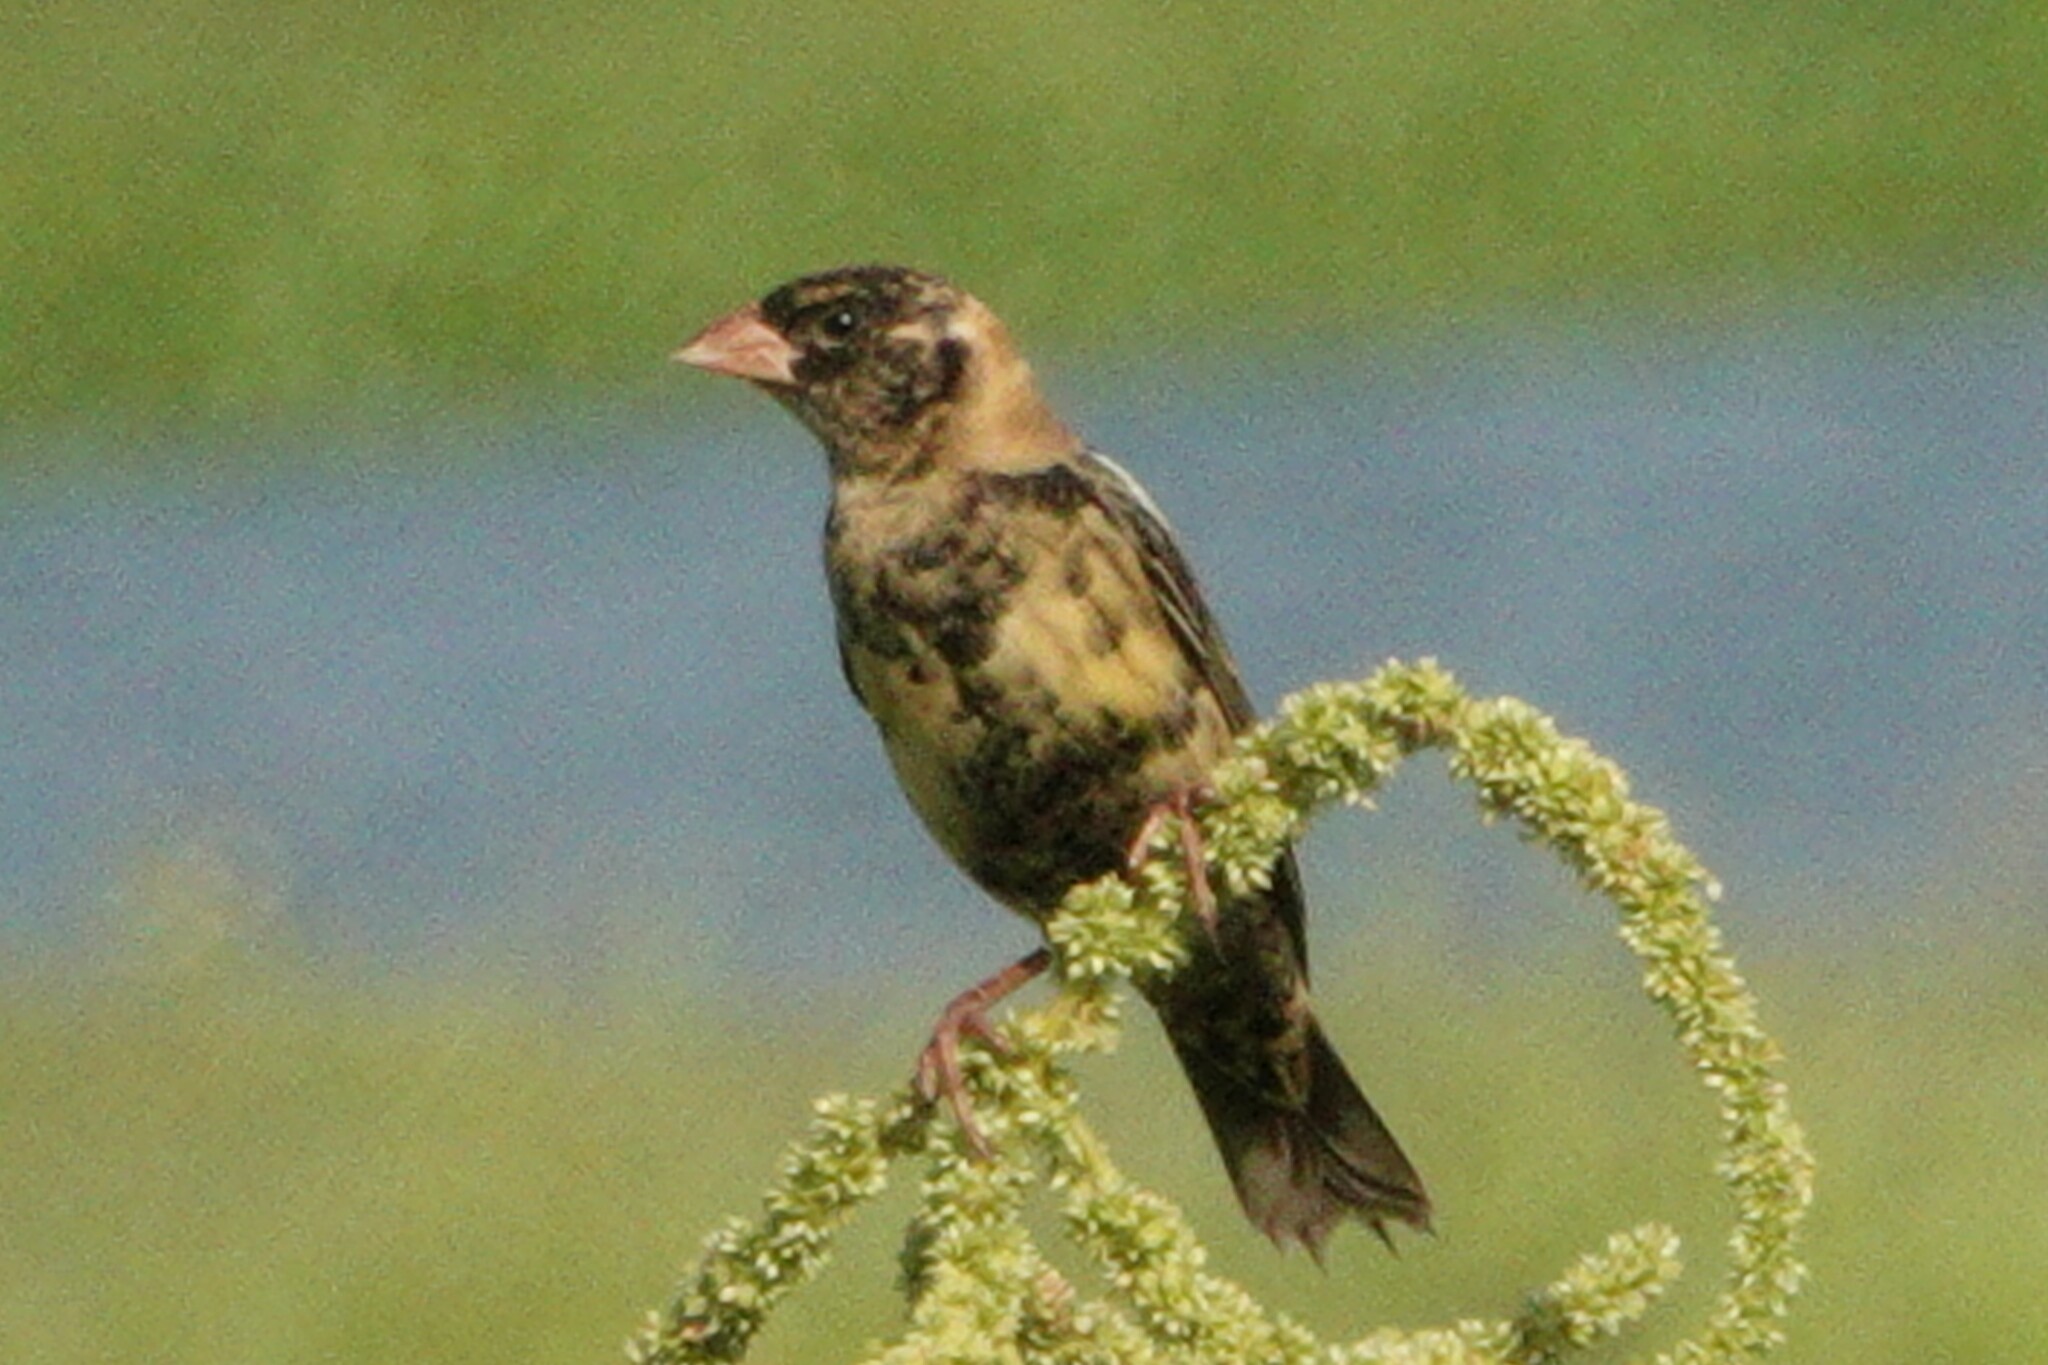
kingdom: Animalia
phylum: Chordata
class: Aves
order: Passeriformes
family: Icteridae
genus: Dolichonyx
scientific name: Dolichonyx oryzivorus
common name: Bobolink
